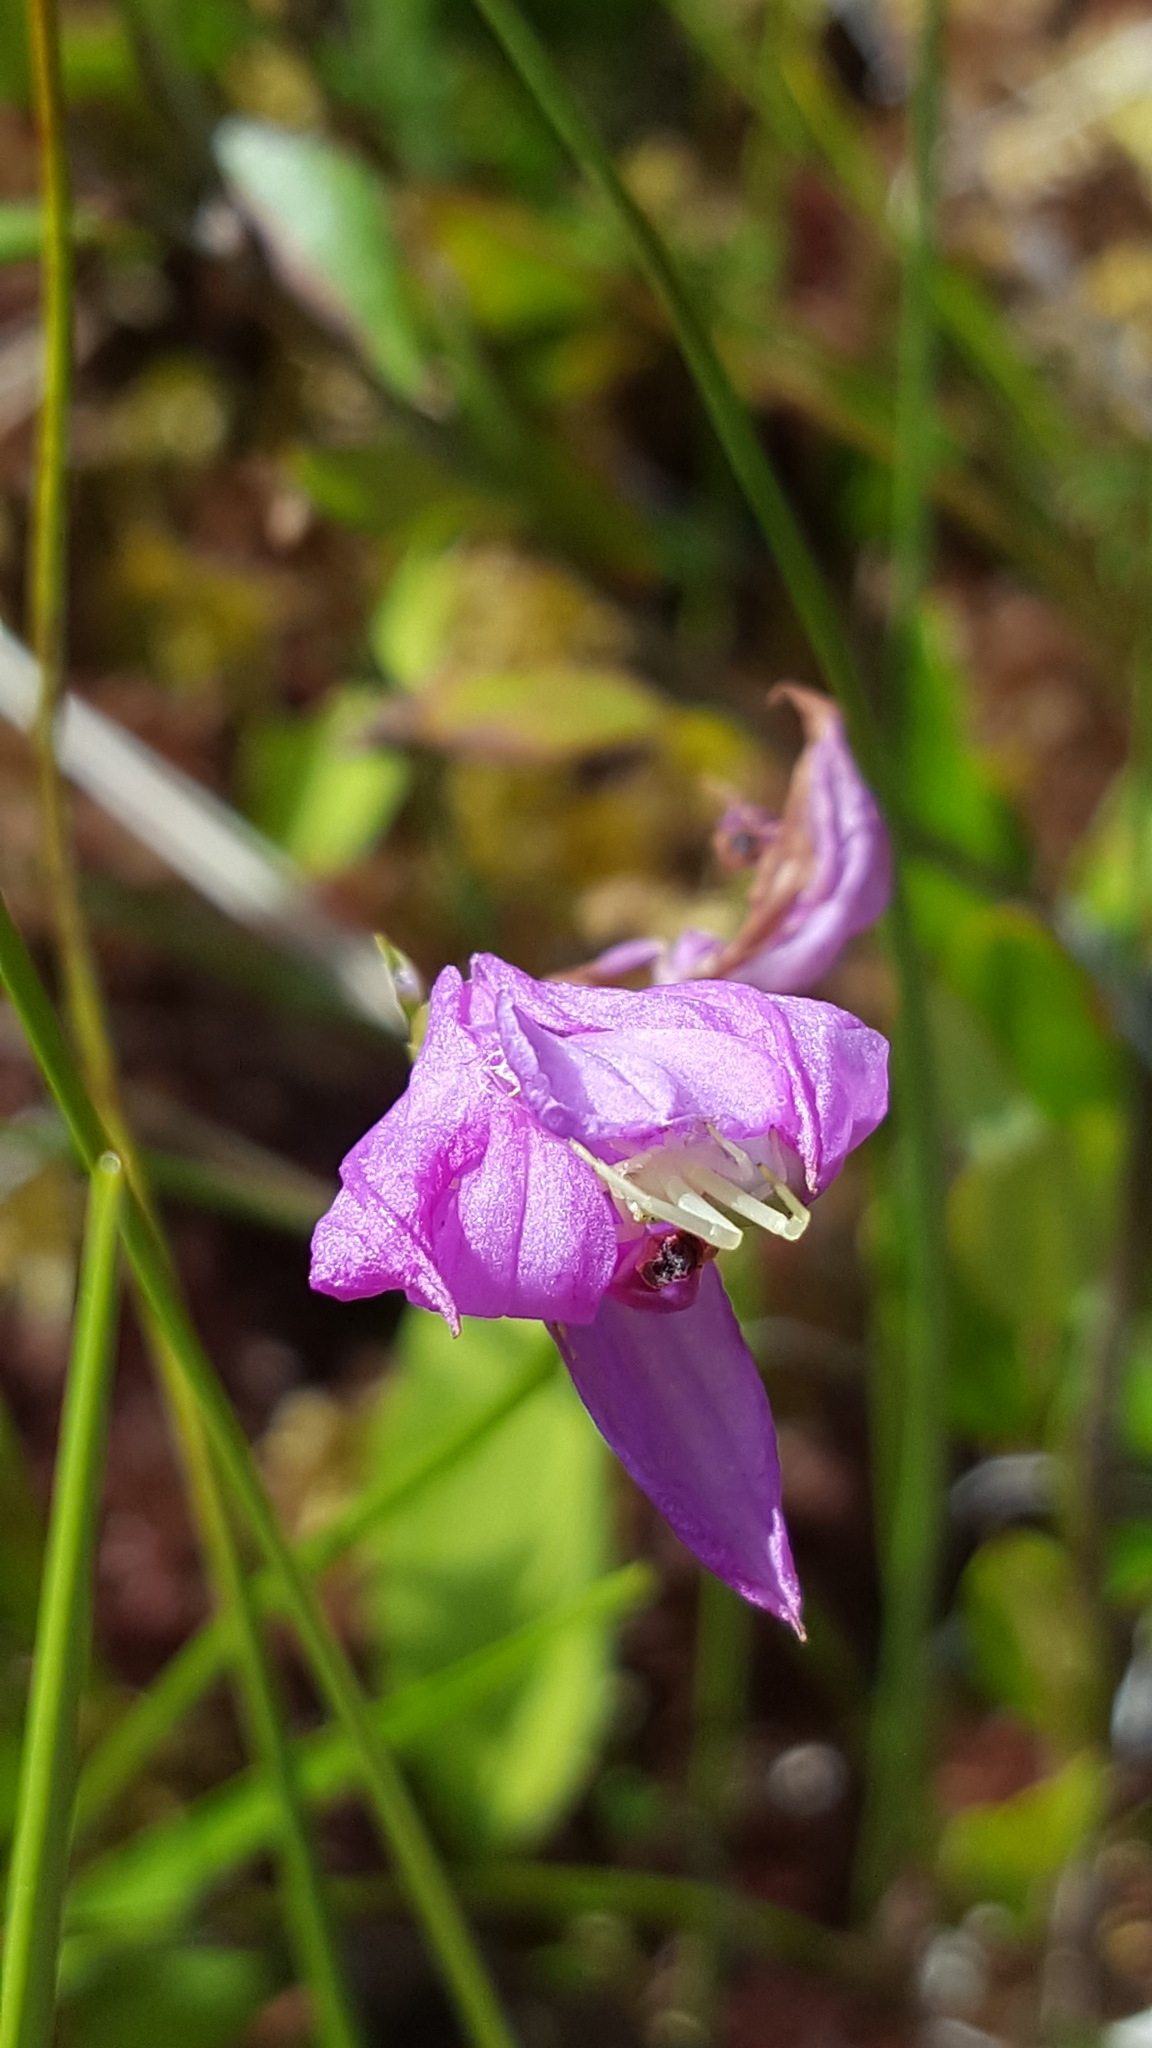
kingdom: Plantae
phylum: Tracheophyta
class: Liliopsida
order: Asparagales
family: Orchidaceae
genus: Calopogon
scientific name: Calopogon tuberosus
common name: Grass-pink
